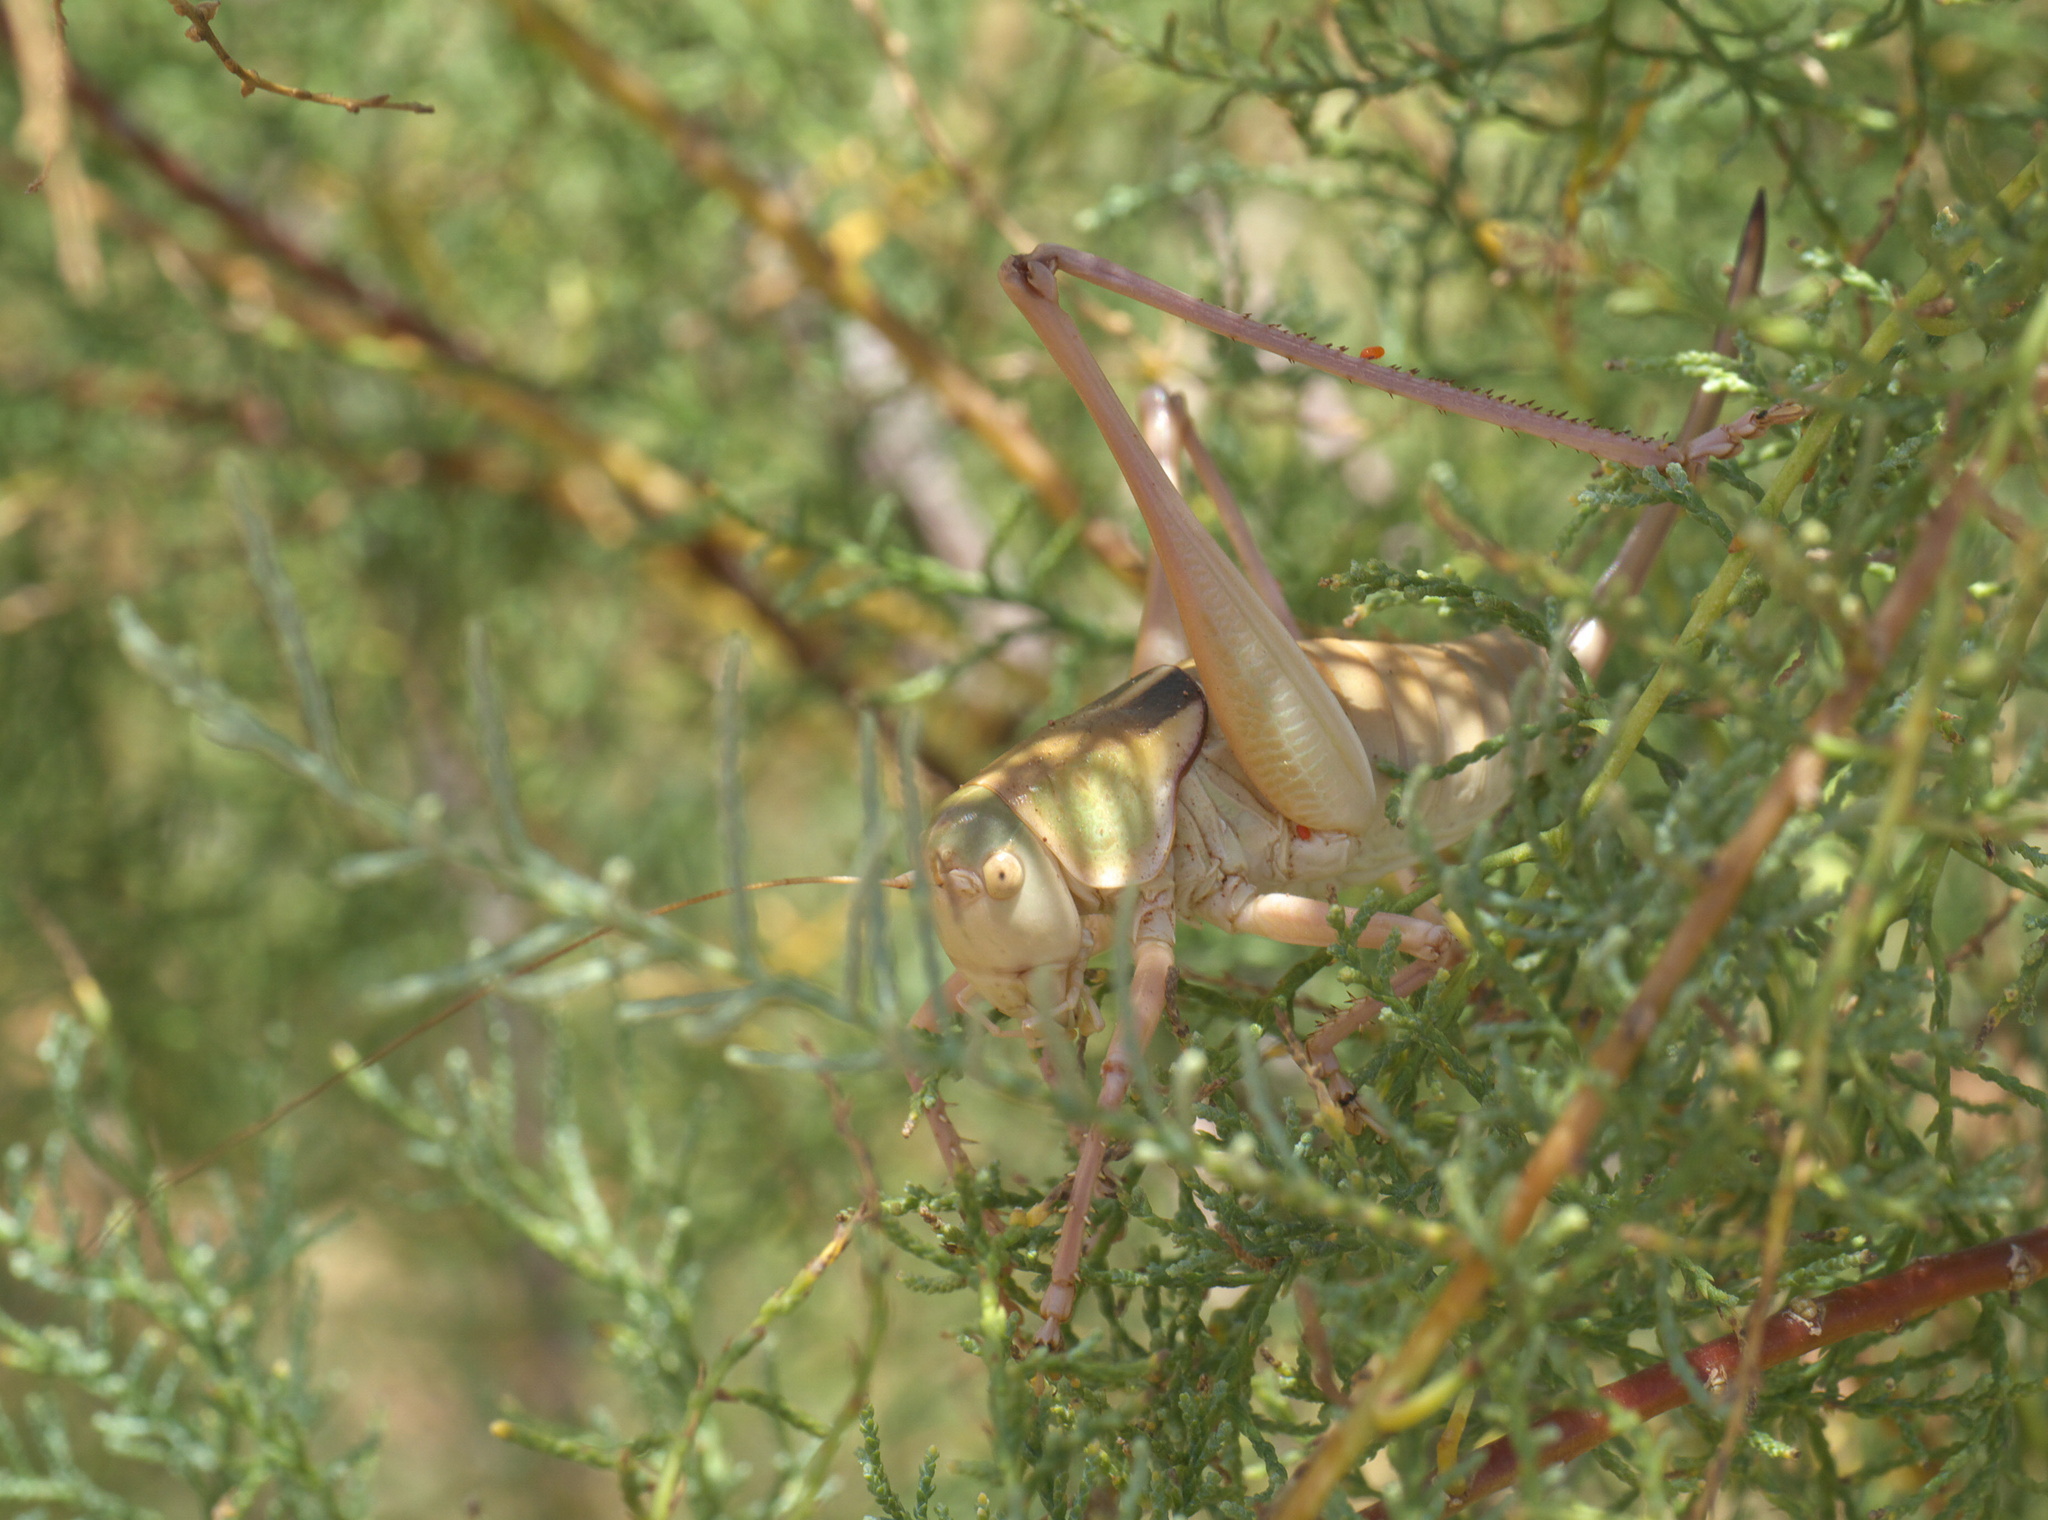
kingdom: Animalia
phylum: Arthropoda
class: Insecta
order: Orthoptera
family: Tettigoniidae
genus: Pediodectes
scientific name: Pediodectes haldemanii
